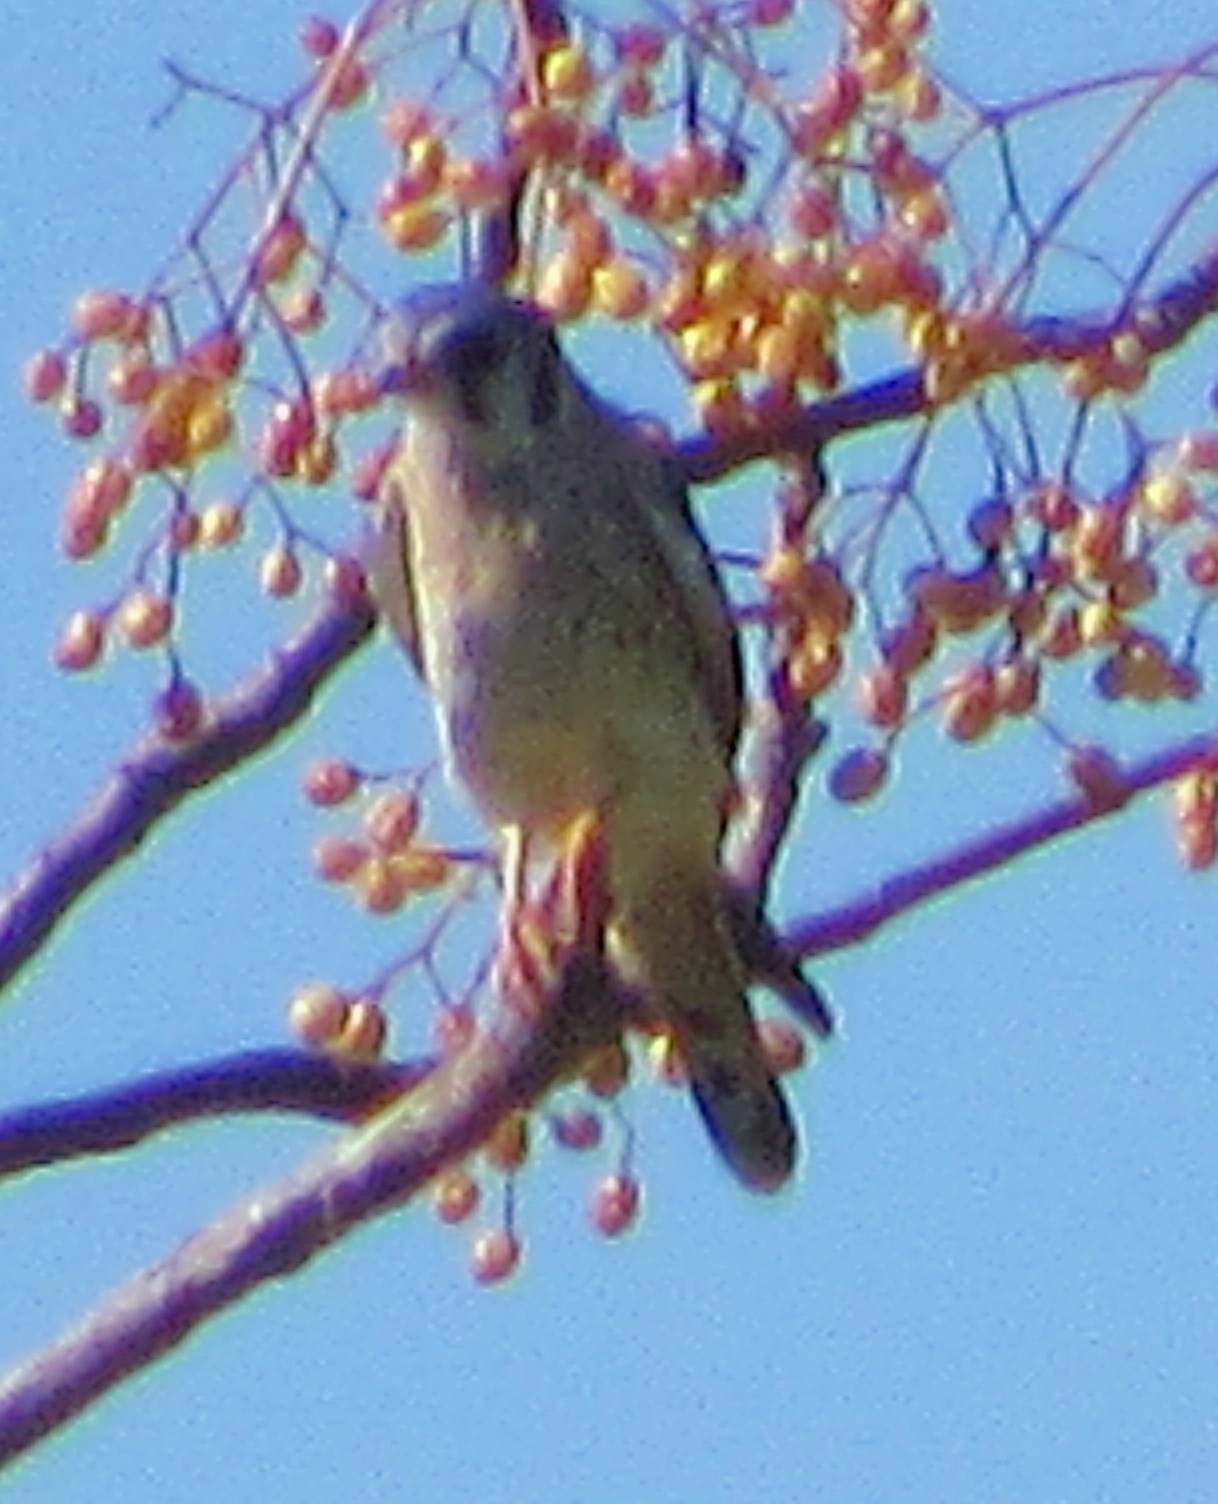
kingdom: Animalia
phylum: Chordata
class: Aves
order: Falconiformes
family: Falconidae
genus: Falco
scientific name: Falco sparverius
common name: American kestrel
